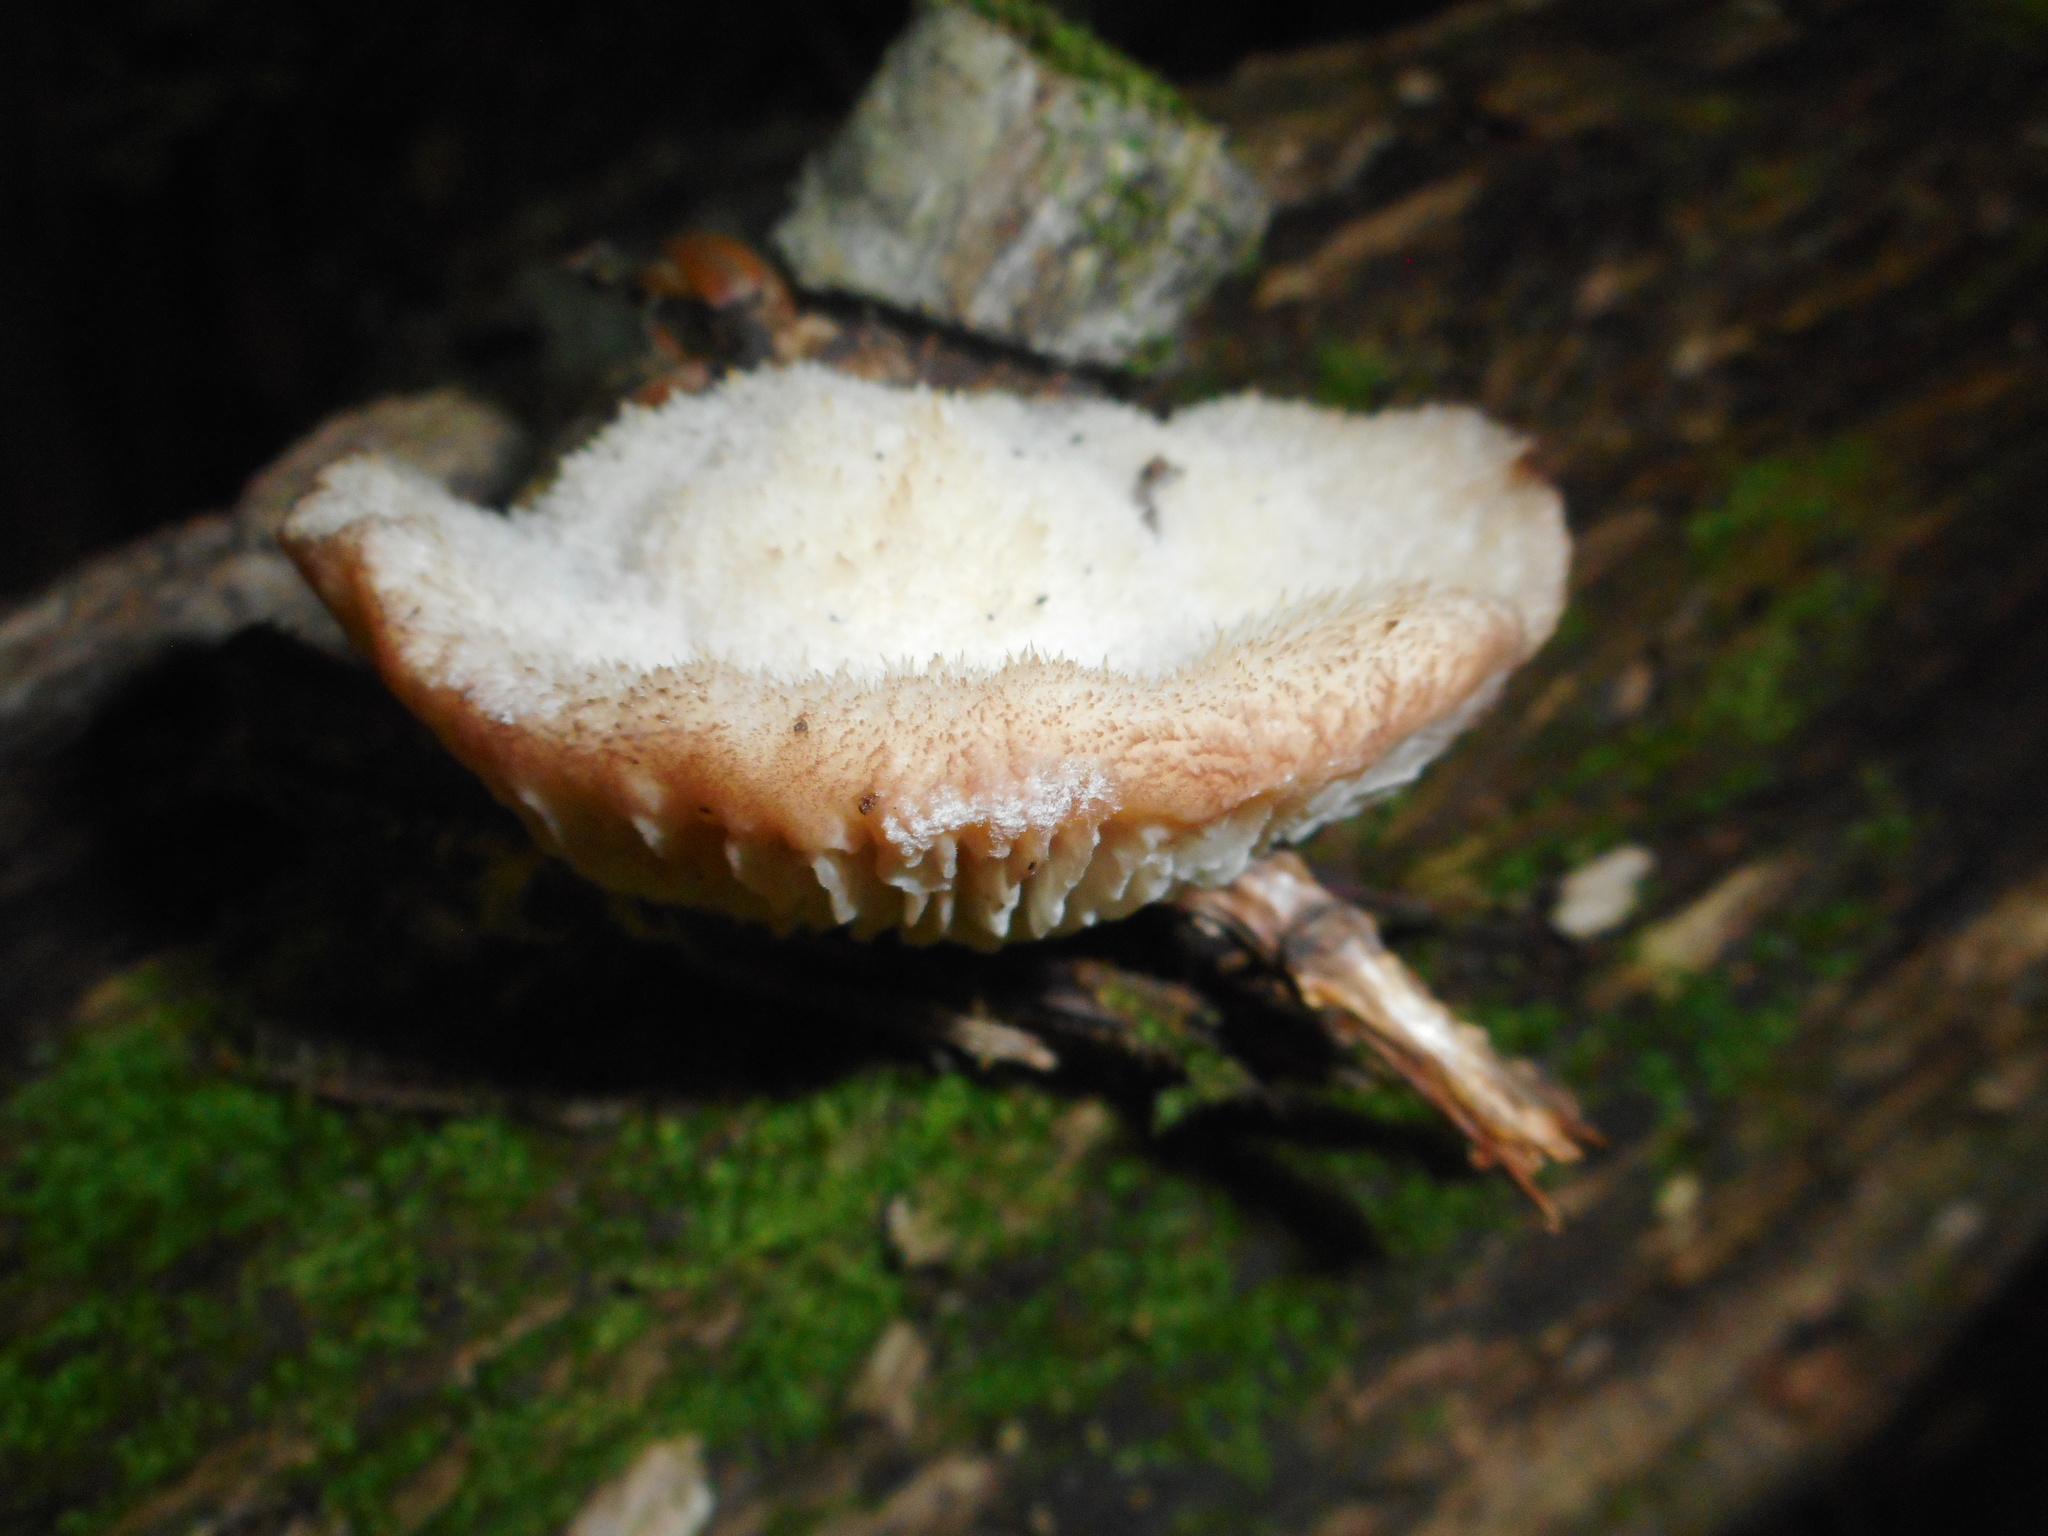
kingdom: Fungi
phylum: Basidiomycota
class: Agaricomycetes
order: Auriculariales
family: Auriculariaceae
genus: Protodaedalea
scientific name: Protodaedalea foliacea
